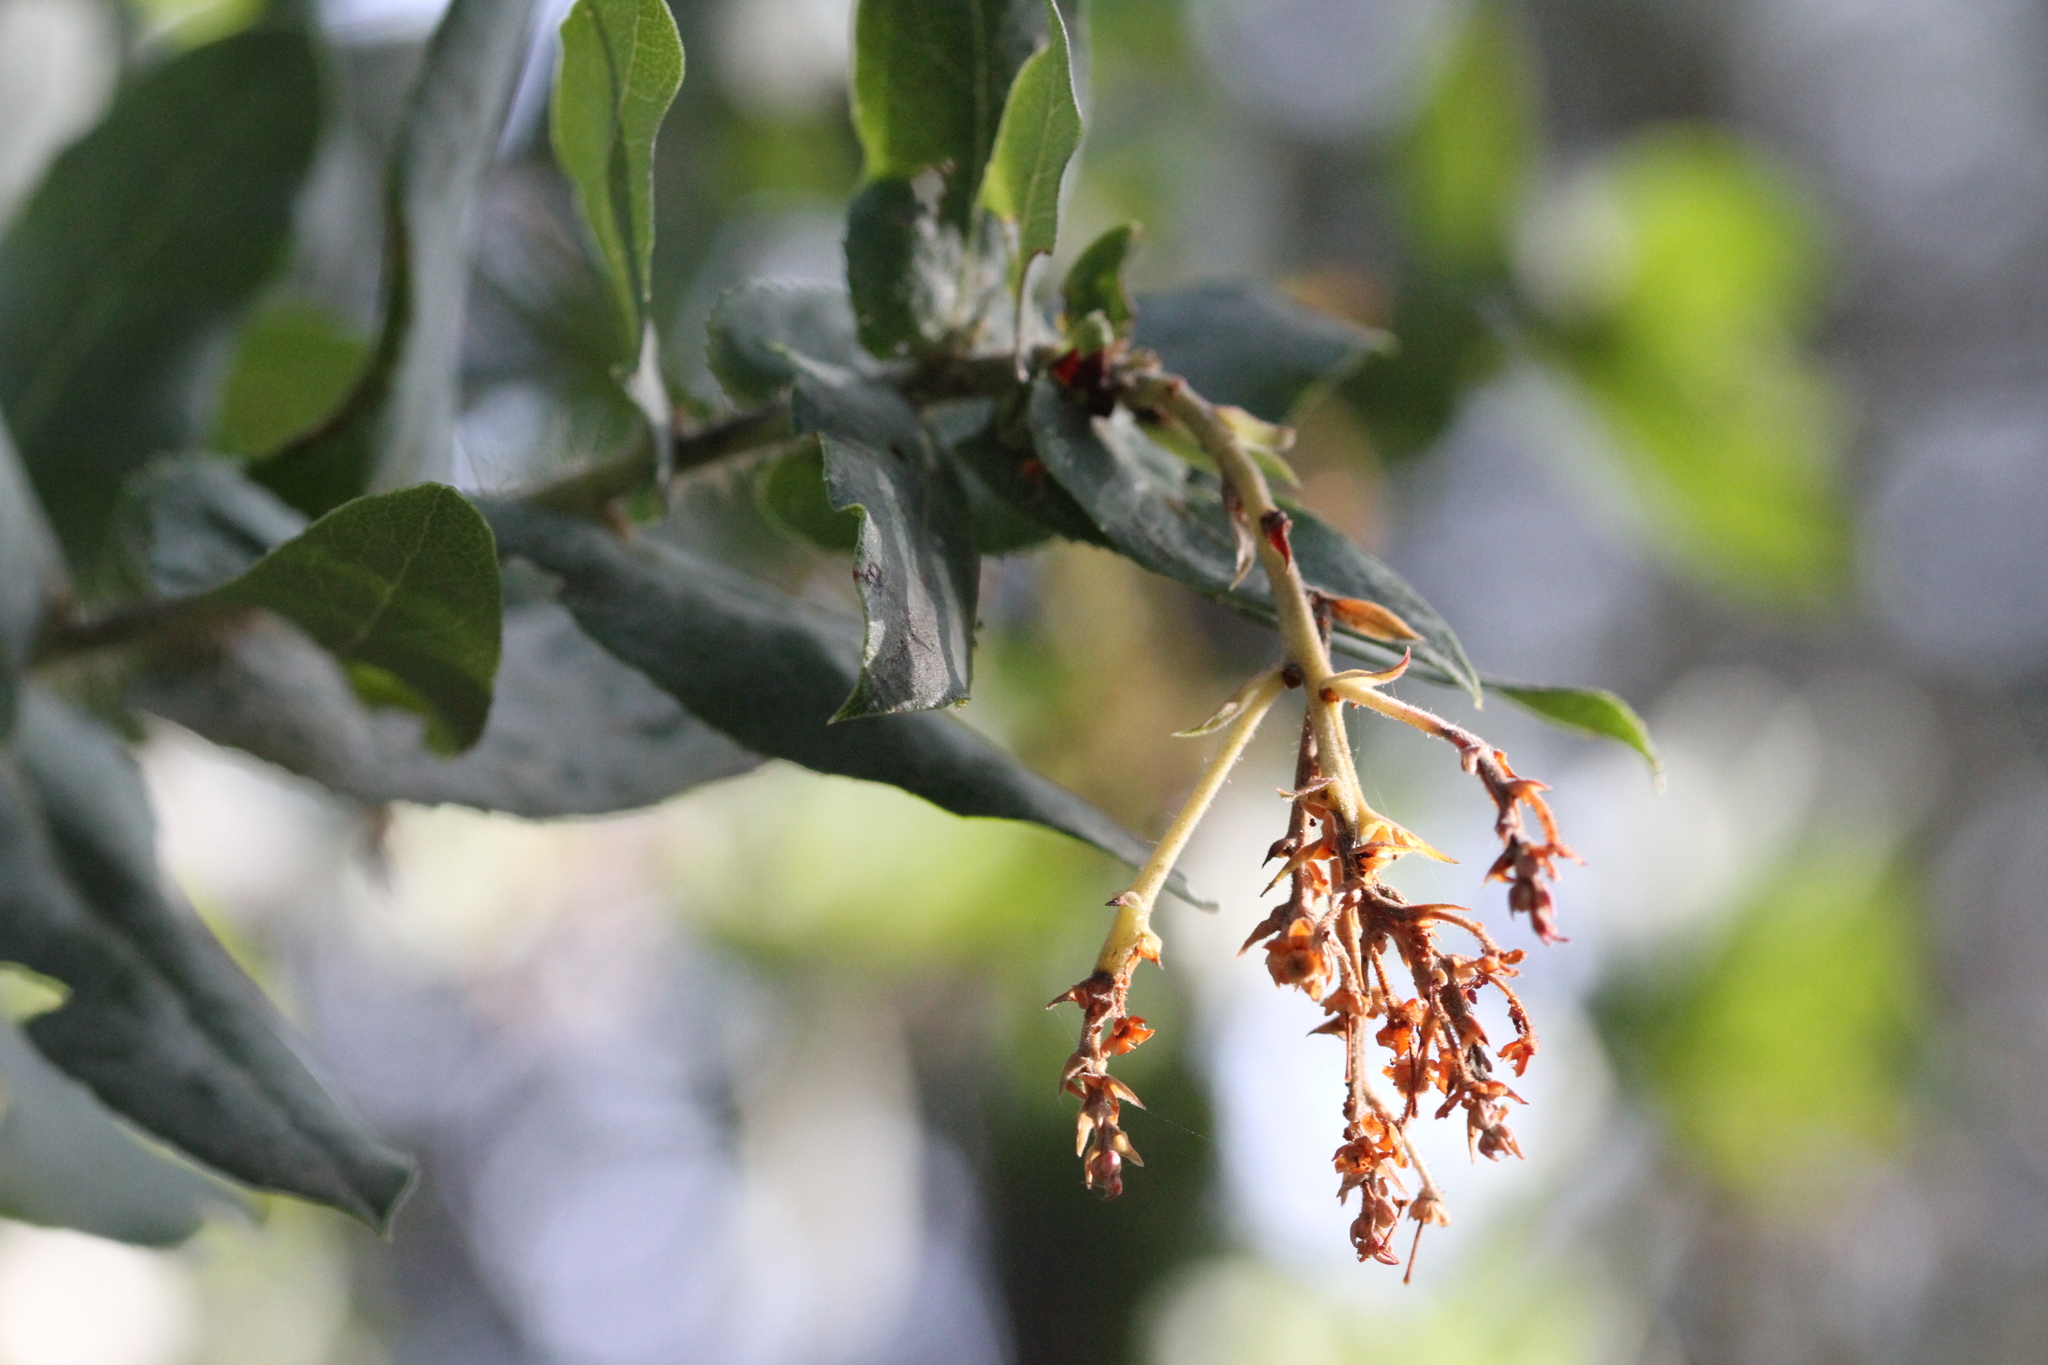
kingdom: Plantae
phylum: Tracheophyta
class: Magnoliopsida
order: Ericales
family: Ericaceae
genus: Arctostaphylos
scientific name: Arctostaphylos andersonii
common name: Santa cruz manzanita
